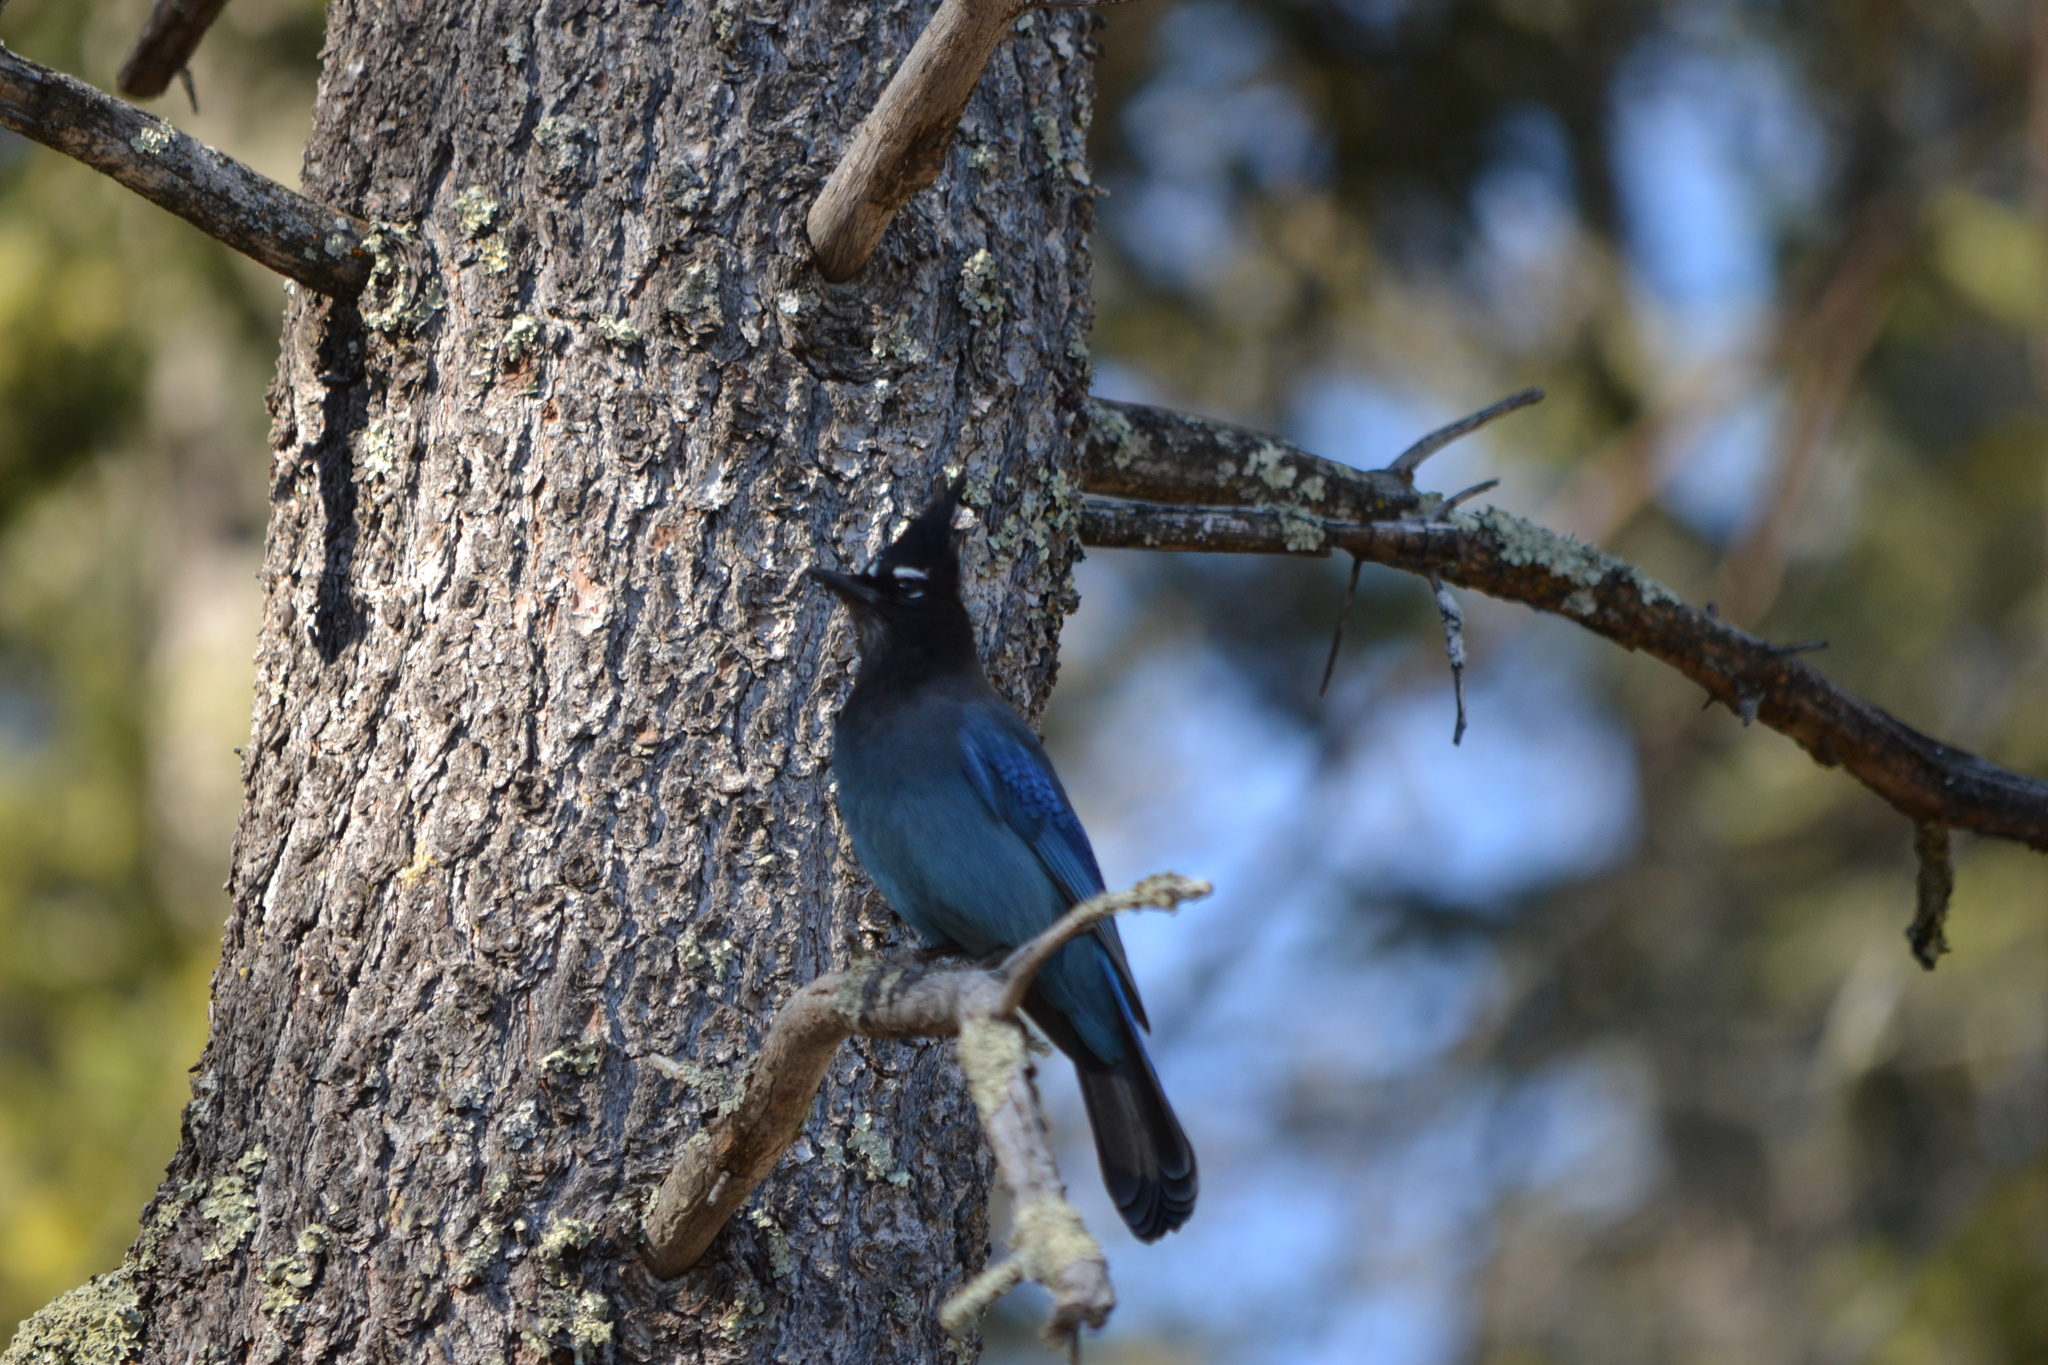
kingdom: Animalia
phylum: Chordata
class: Aves
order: Passeriformes
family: Corvidae
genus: Cyanocitta
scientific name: Cyanocitta stelleri
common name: Steller's jay
